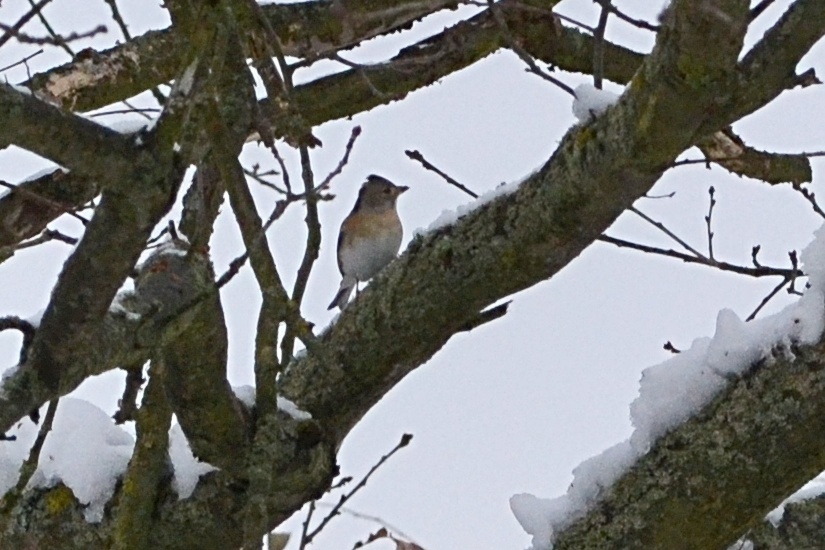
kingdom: Animalia
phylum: Chordata
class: Aves
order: Passeriformes
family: Fringillidae
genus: Fringilla
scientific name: Fringilla montifringilla
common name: Brambling
